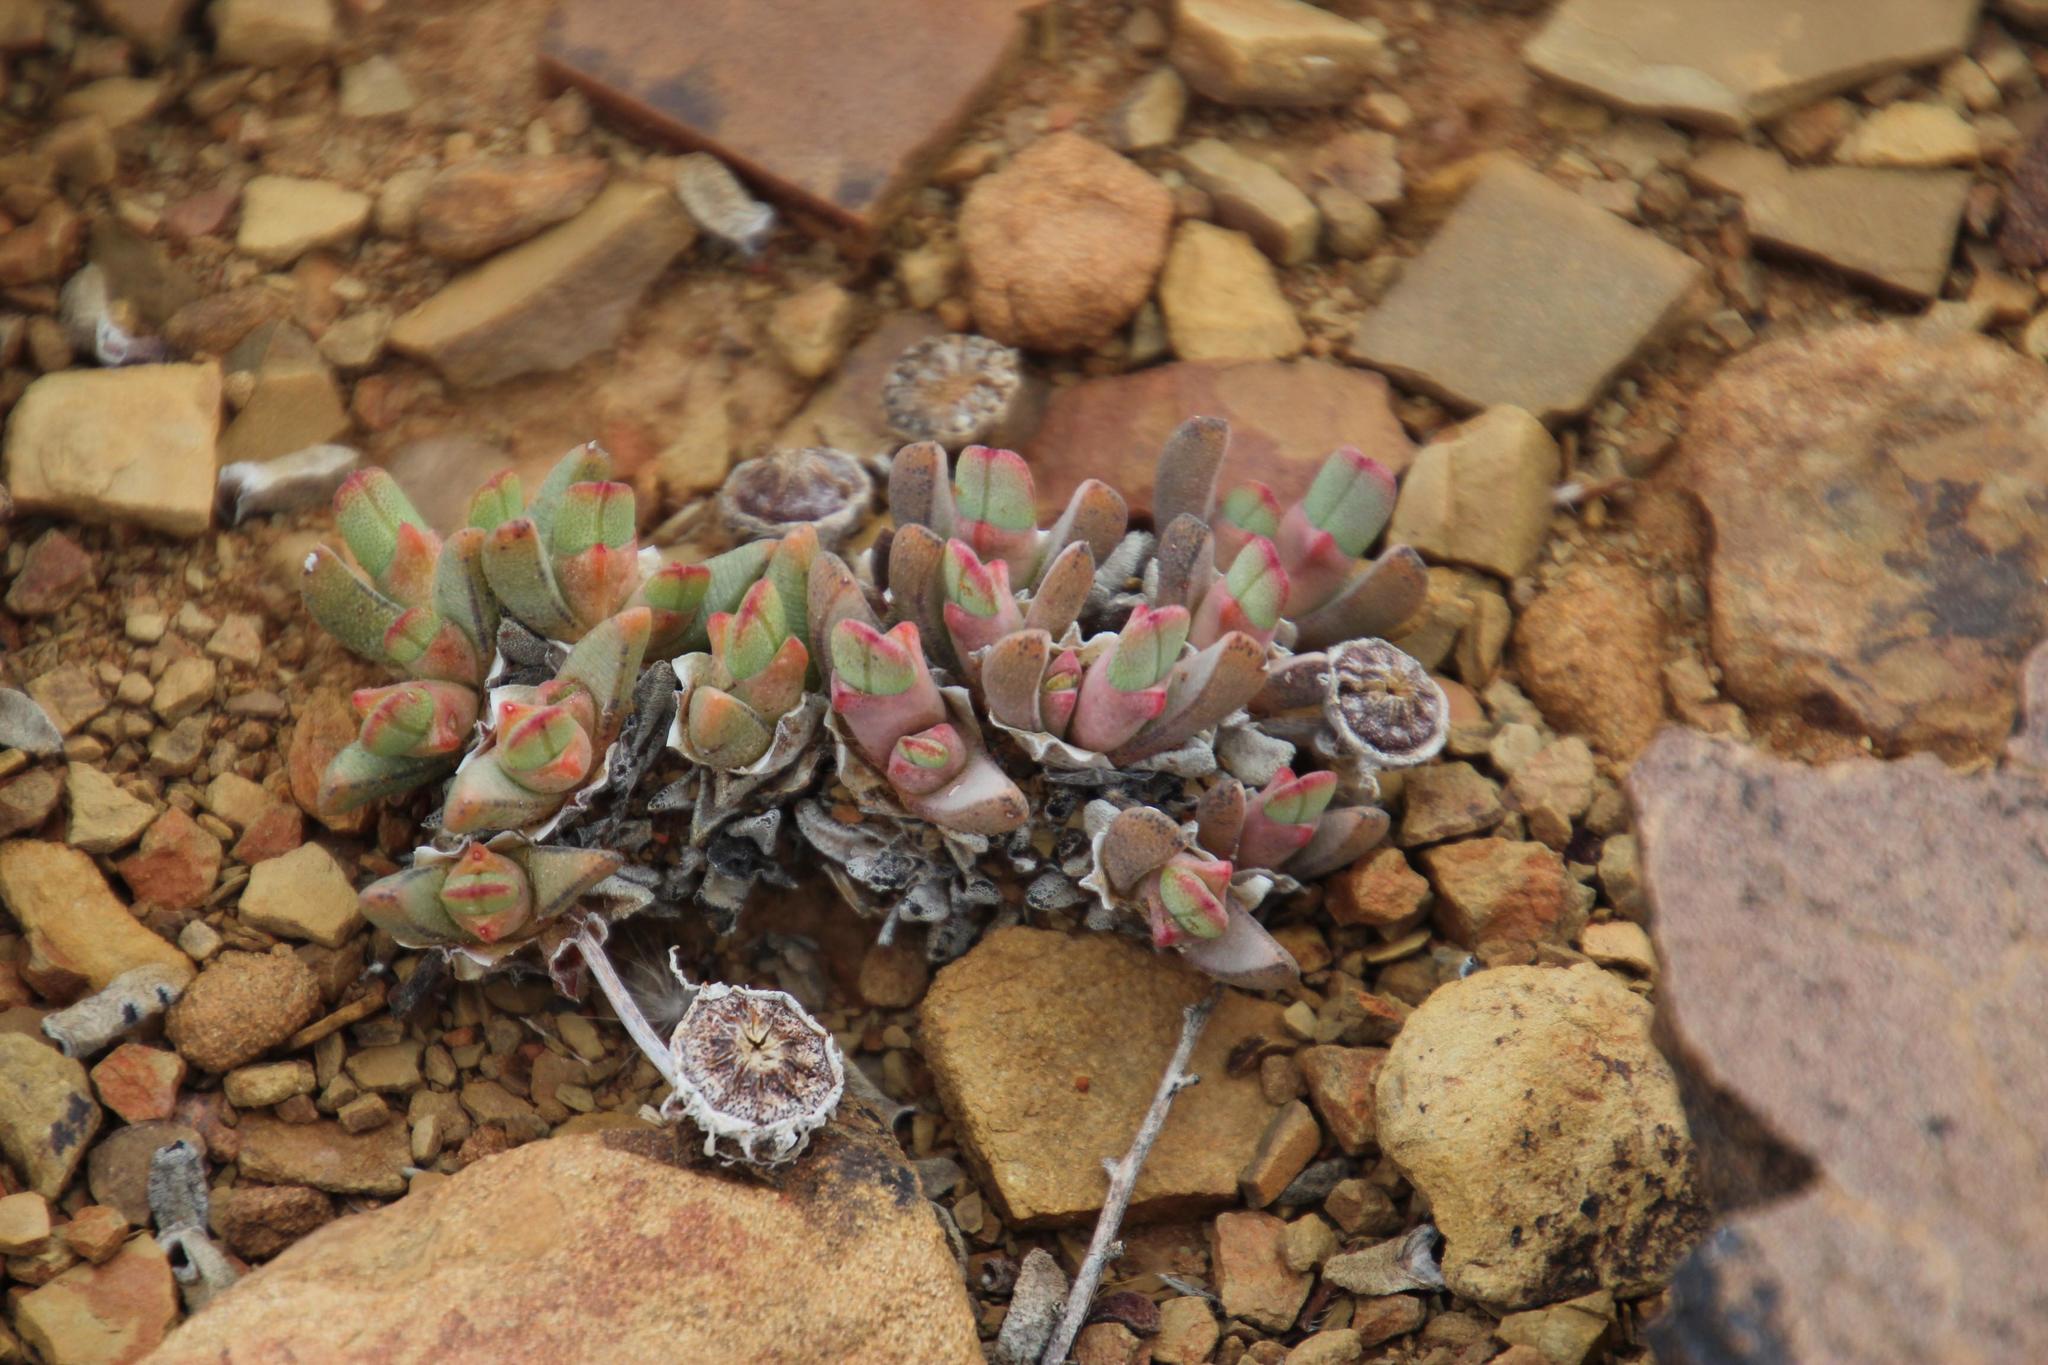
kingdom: Plantae
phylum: Tracheophyta
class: Magnoliopsida
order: Caryophyllales
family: Aizoaceae
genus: Cheiridopsis
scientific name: Cheiridopsis namaquensis
